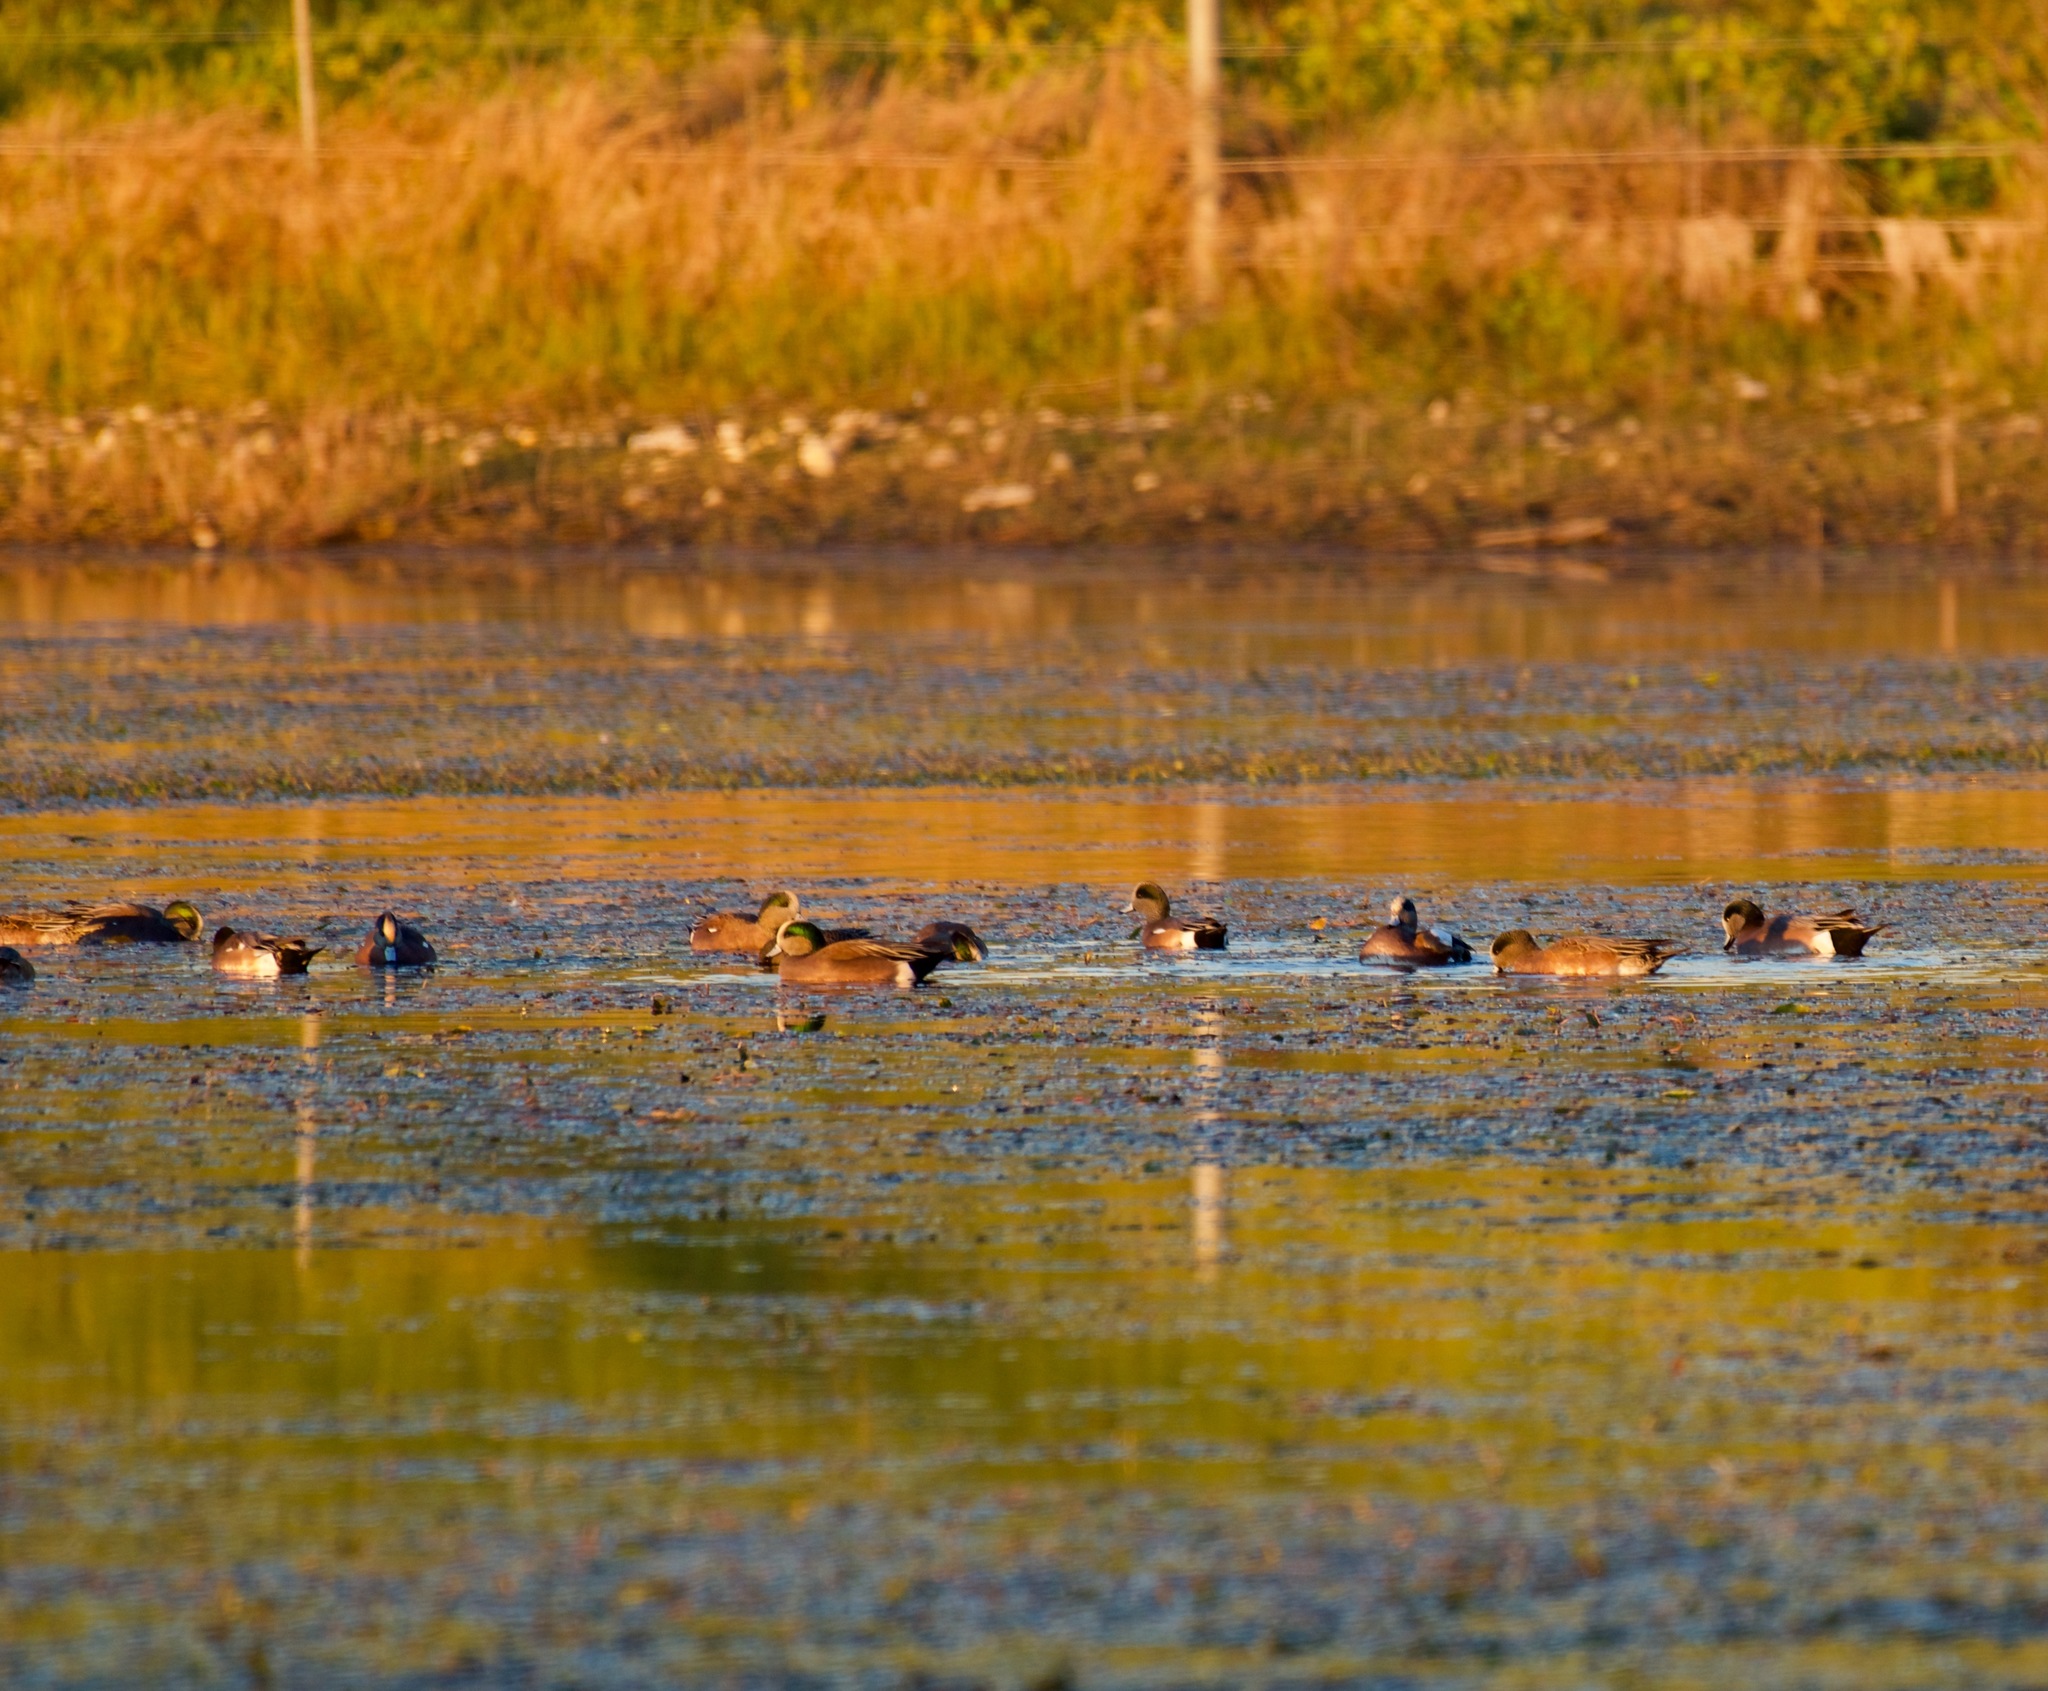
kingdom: Animalia
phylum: Chordata
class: Aves
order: Anseriformes
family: Anatidae
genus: Mareca
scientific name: Mareca americana
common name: American wigeon
